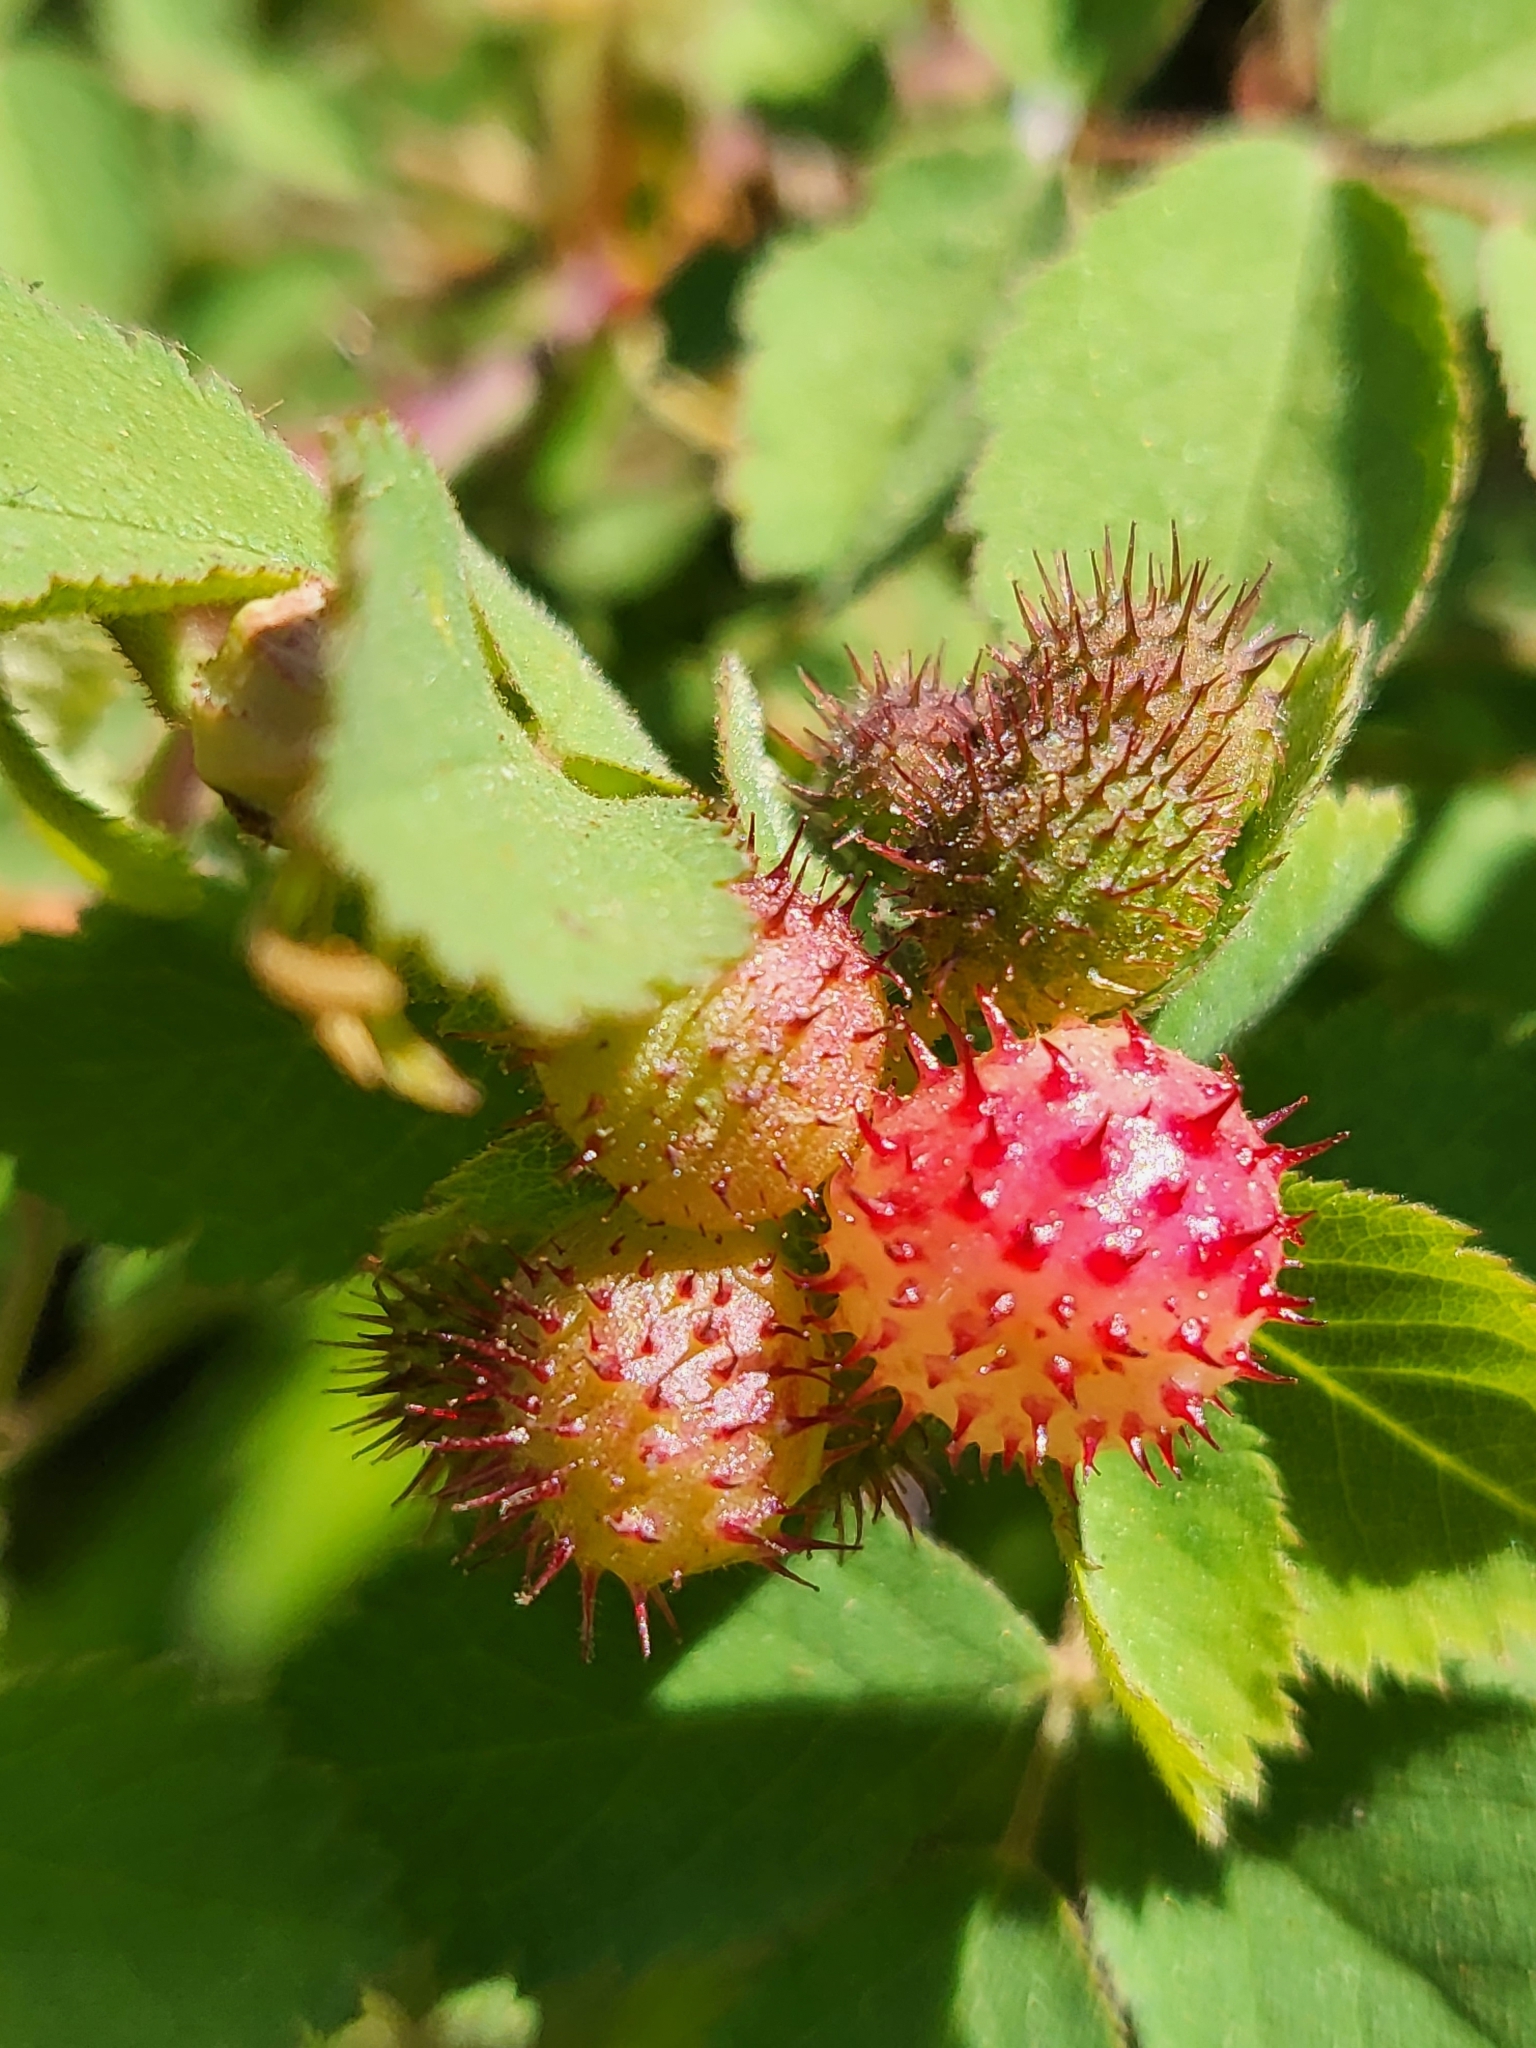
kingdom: Animalia
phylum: Arthropoda
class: Insecta
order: Hymenoptera
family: Cynipidae
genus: Diplolepis
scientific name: Diplolepis polita
